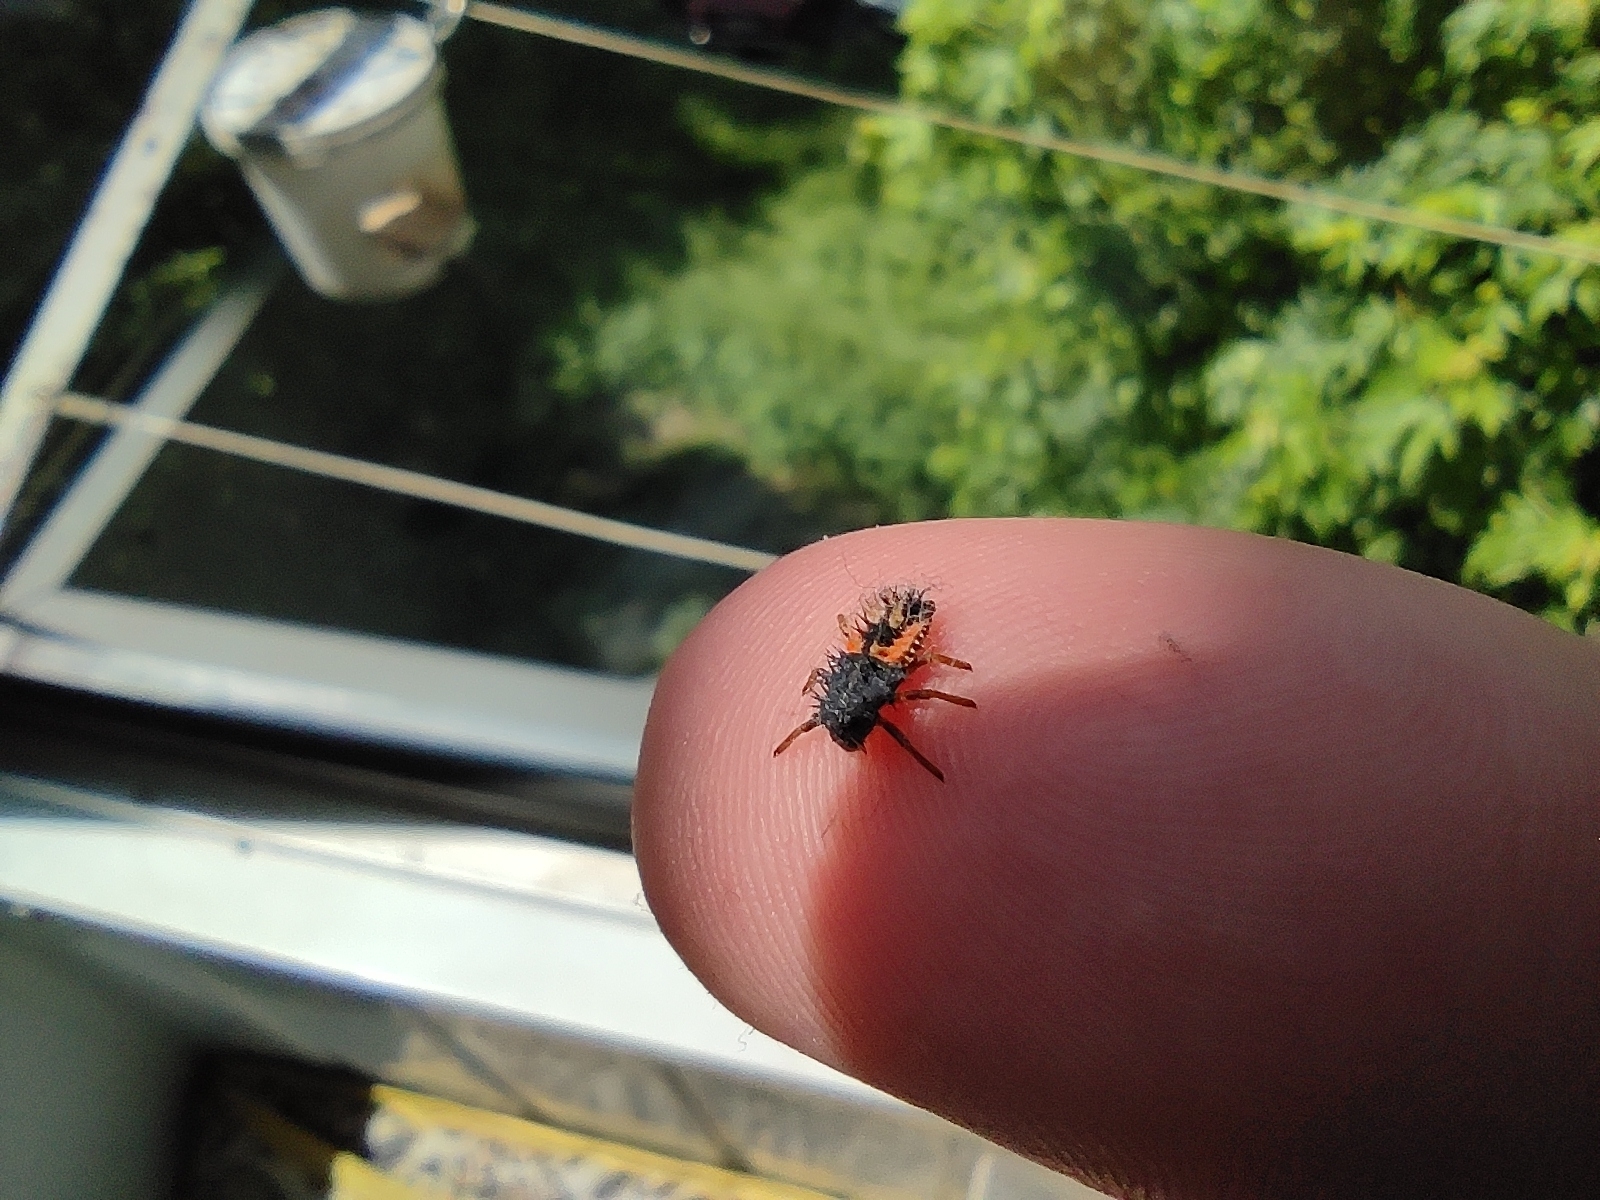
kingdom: Animalia
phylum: Arthropoda
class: Insecta
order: Coleoptera
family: Coccinellidae
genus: Harmonia
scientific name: Harmonia axyridis
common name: Harlequin ladybird
